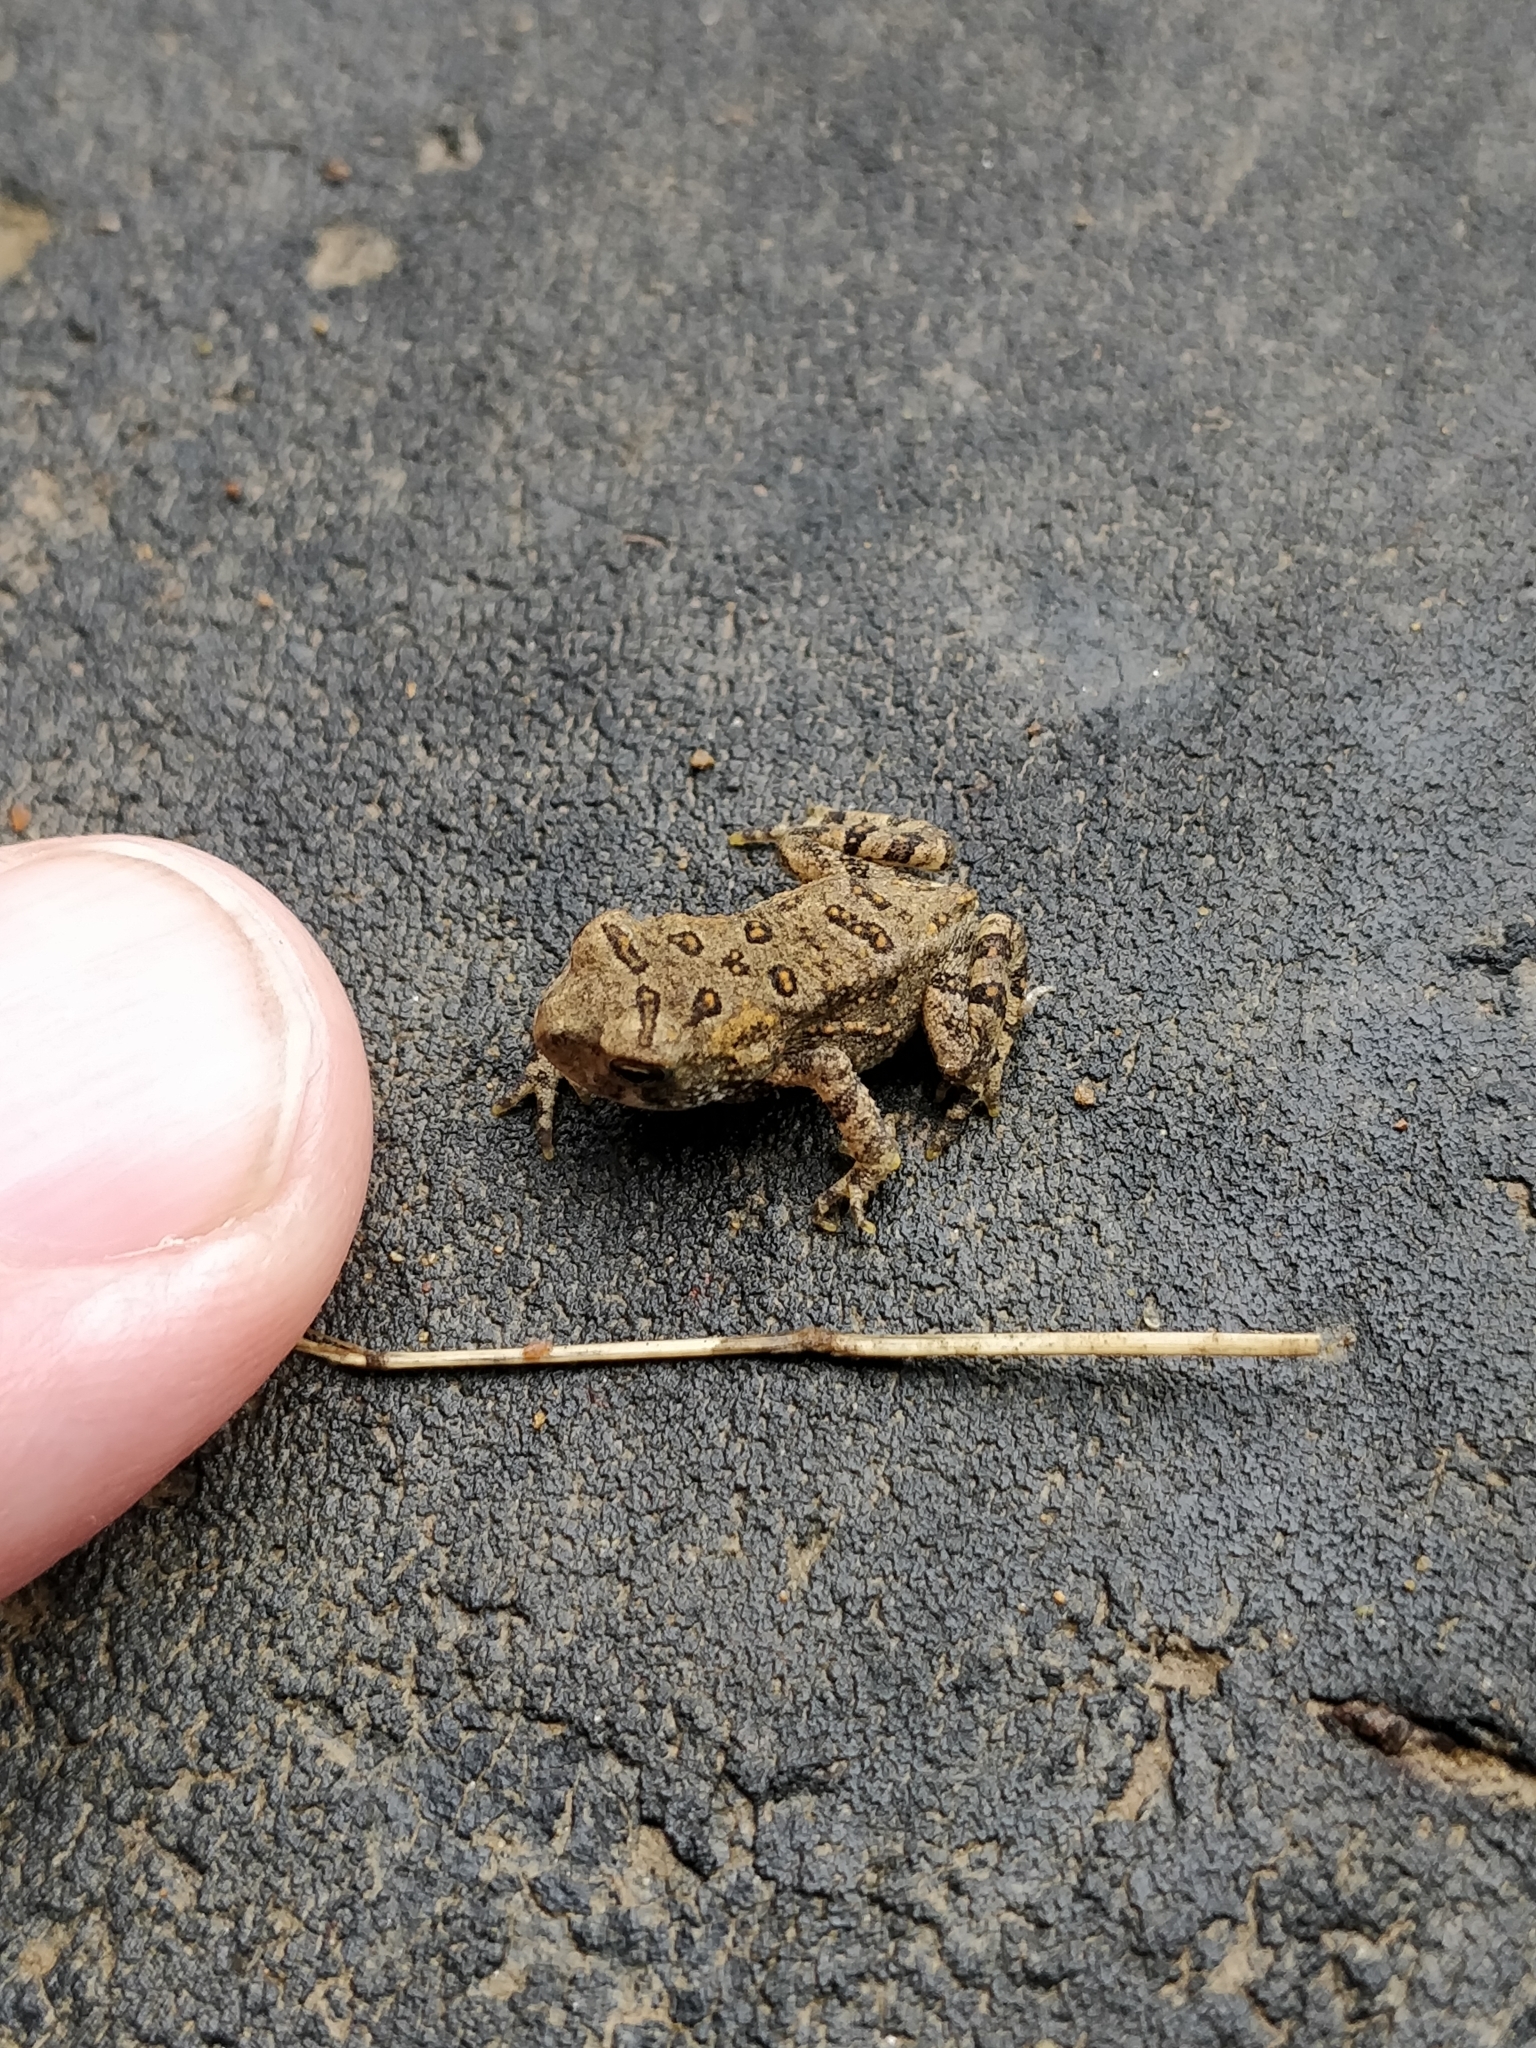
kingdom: Animalia
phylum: Chordata
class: Amphibia
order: Anura
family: Bufonidae
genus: Anaxyrus
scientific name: Anaxyrus americanus
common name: American toad
